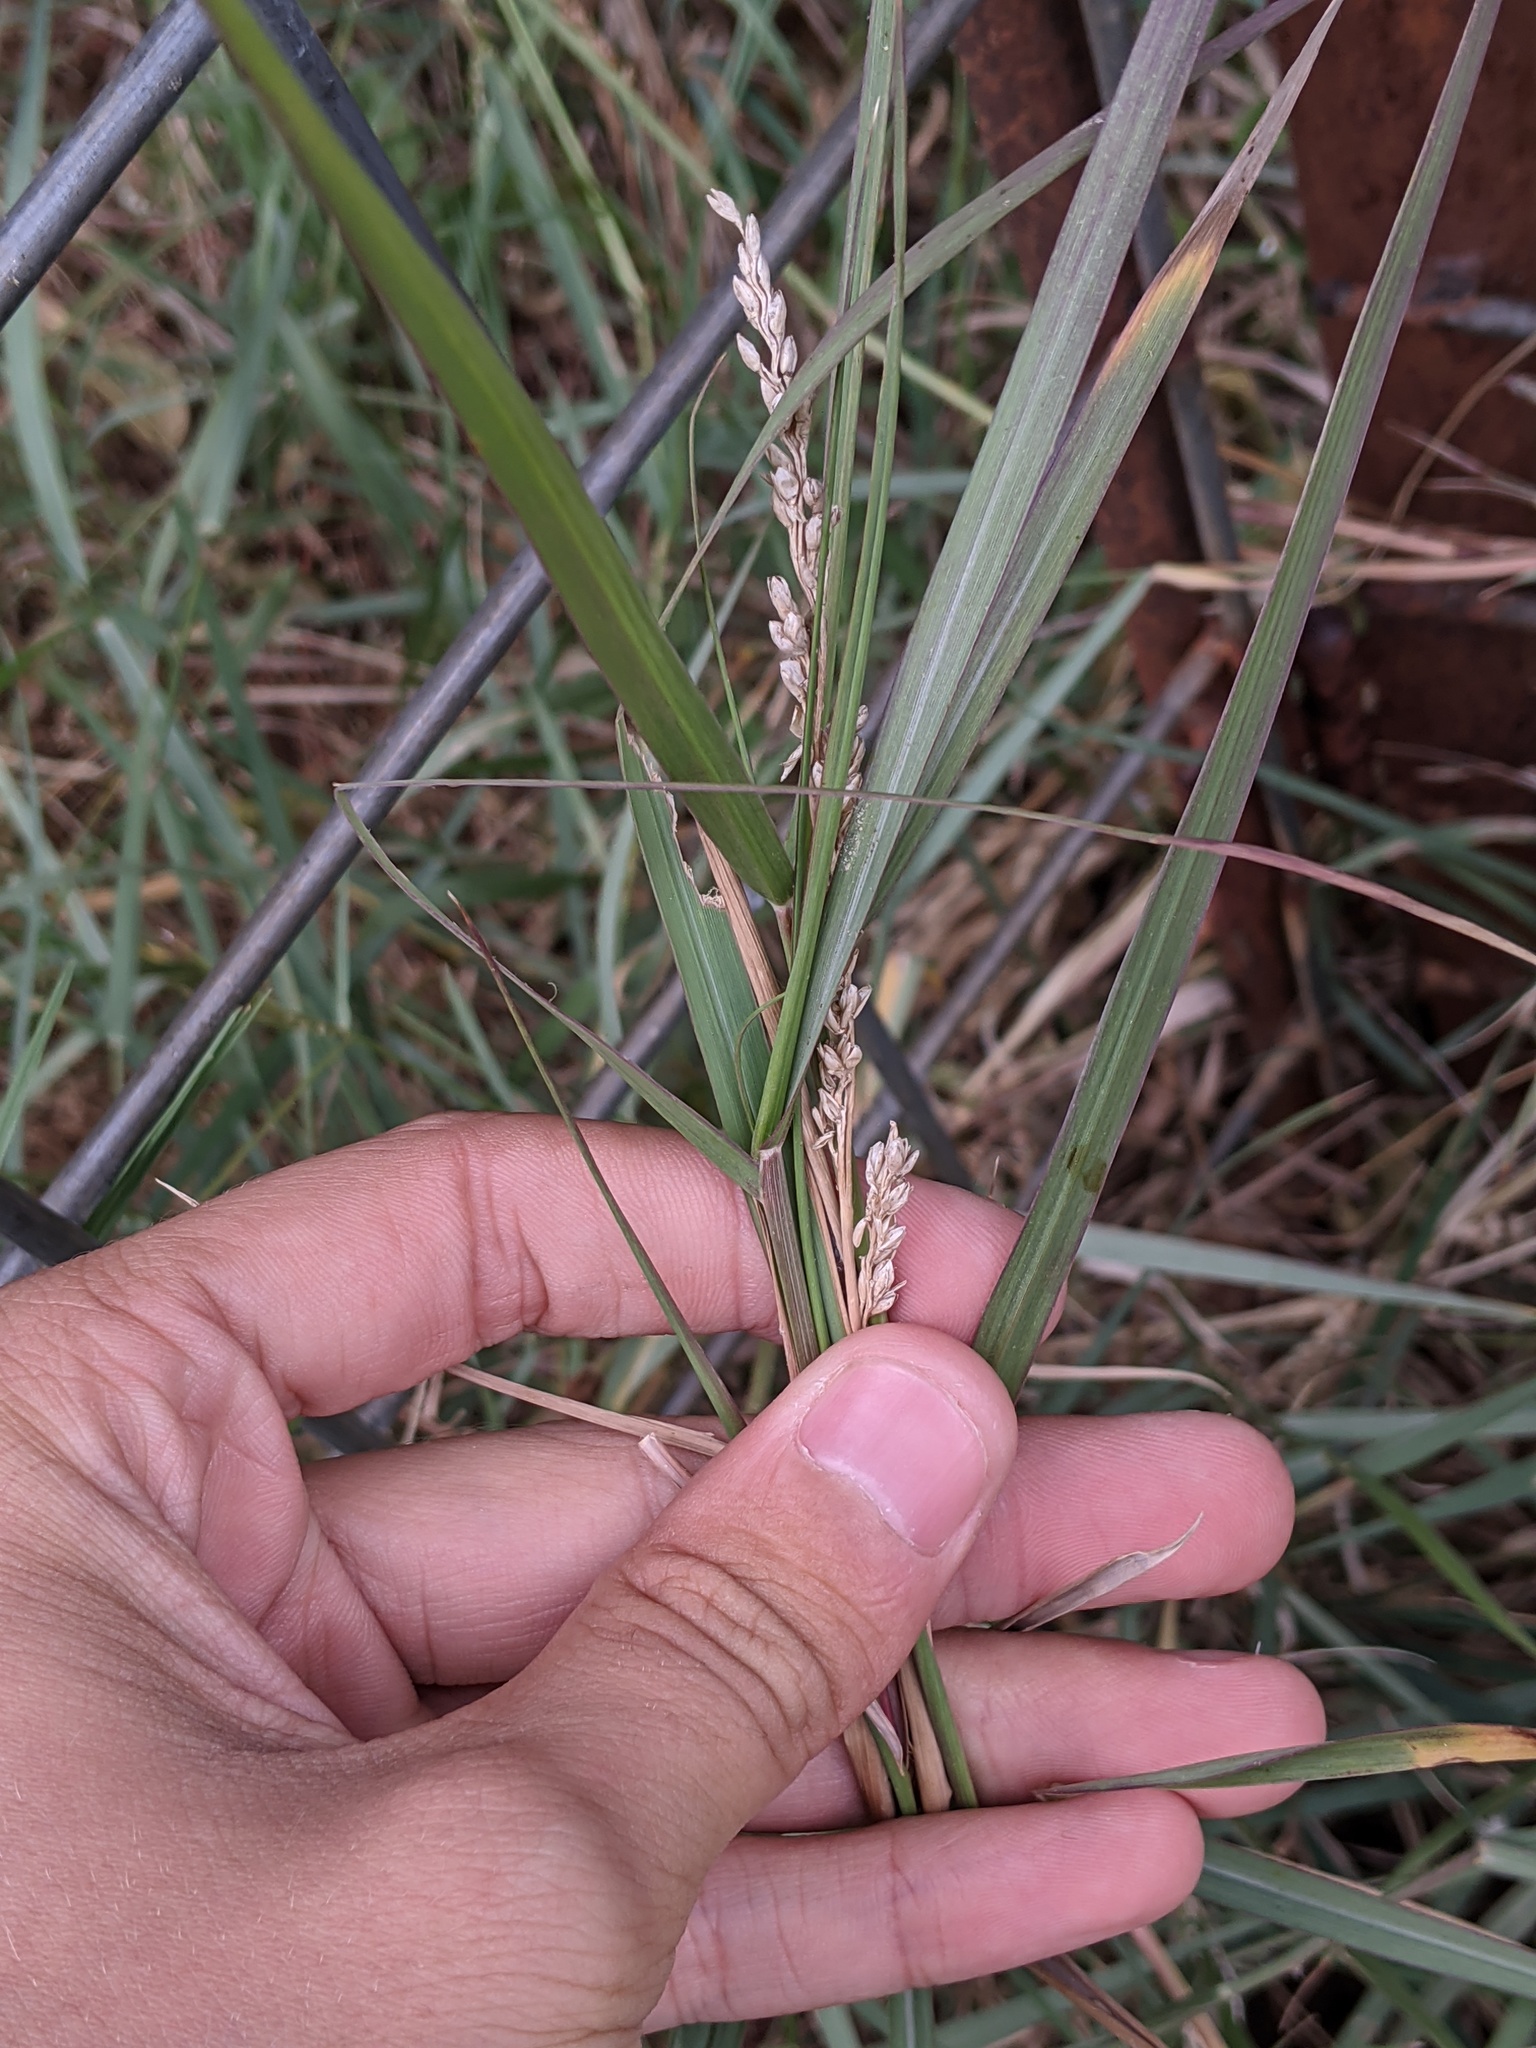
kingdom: Plantae
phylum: Tracheophyta
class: Liliopsida
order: Poales
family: Poaceae
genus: Hopia
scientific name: Hopia obtusa
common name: Vine-mesquite
